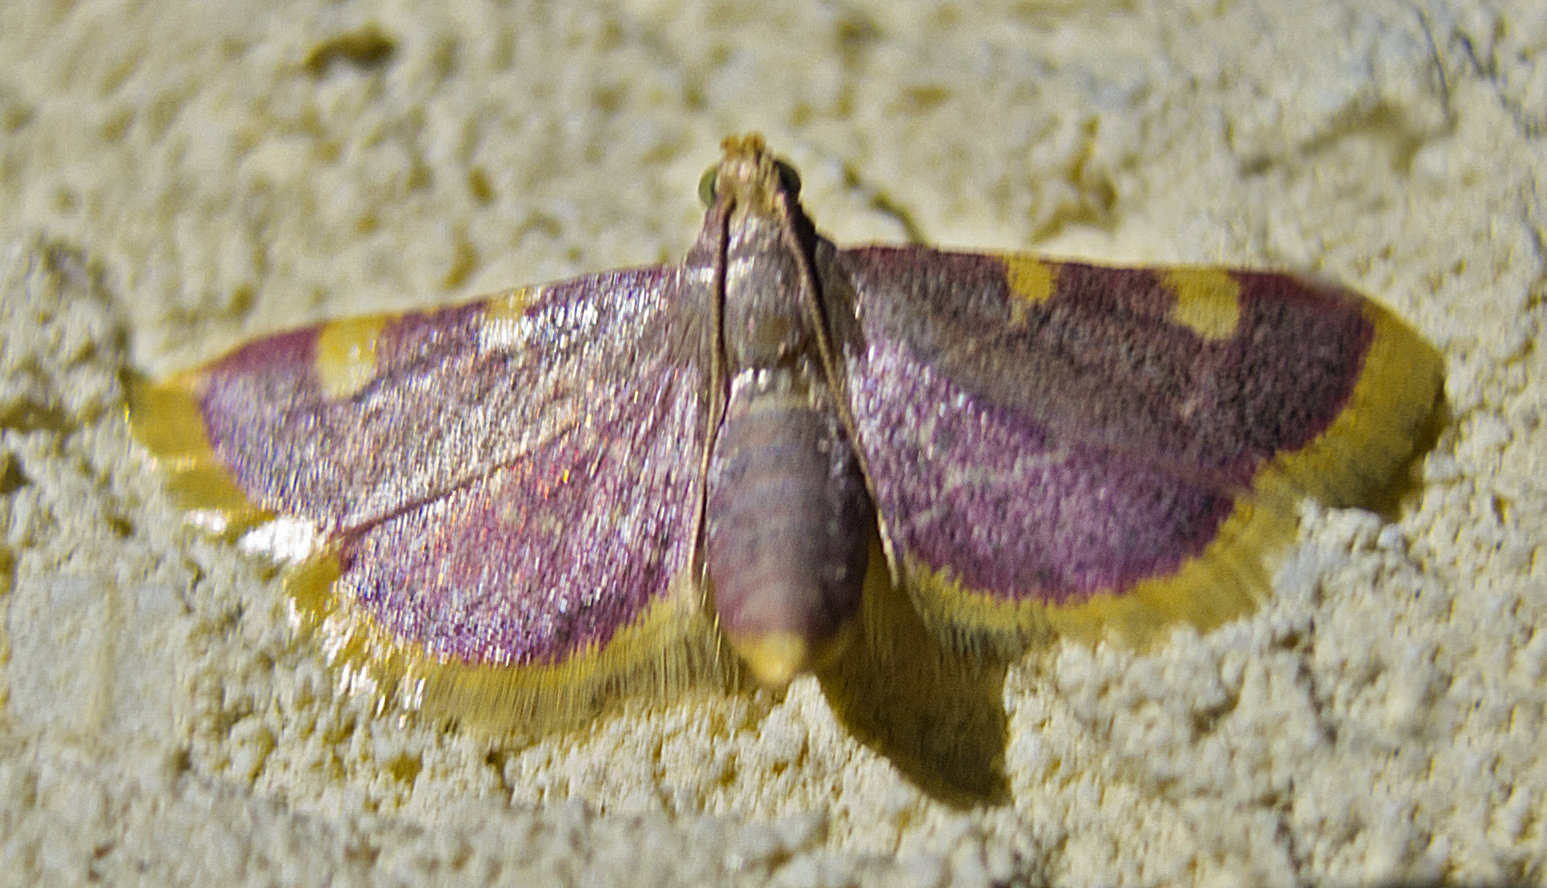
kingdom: Animalia
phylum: Arthropoda
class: Insecta
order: Lepidoptera
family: Pyralidae
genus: Hypsopygia
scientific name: Hypsopygia costalis
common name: Gold triangle
